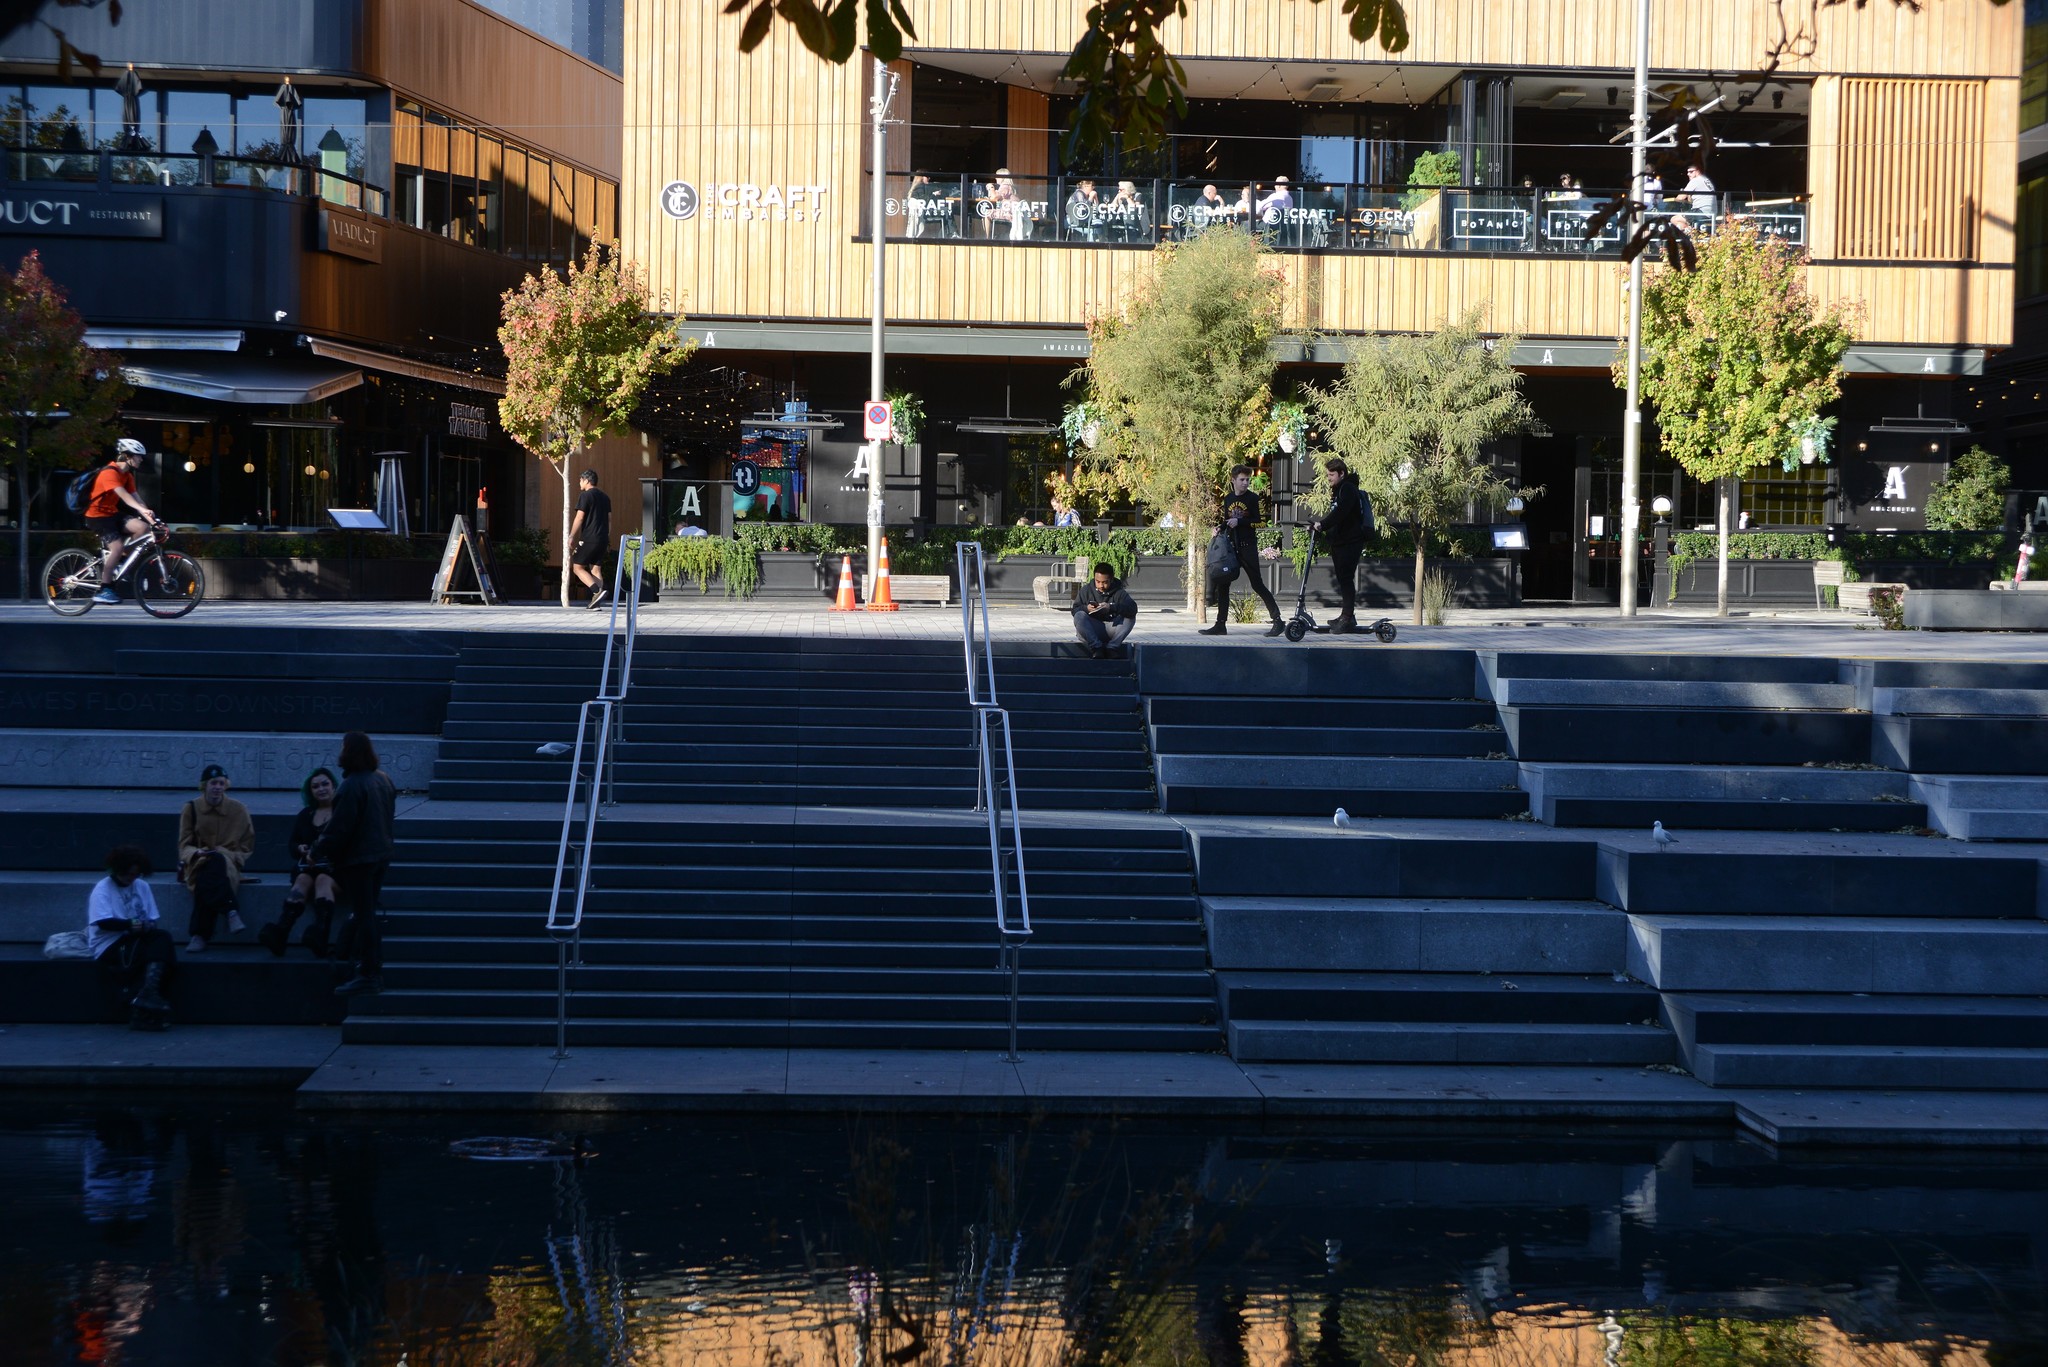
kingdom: Animalia
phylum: Chordata
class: Aves
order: Charadriiformes
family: Laridae
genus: Chroicocephalus
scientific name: Chroicocephalus novaehollandiae
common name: Silver gull
